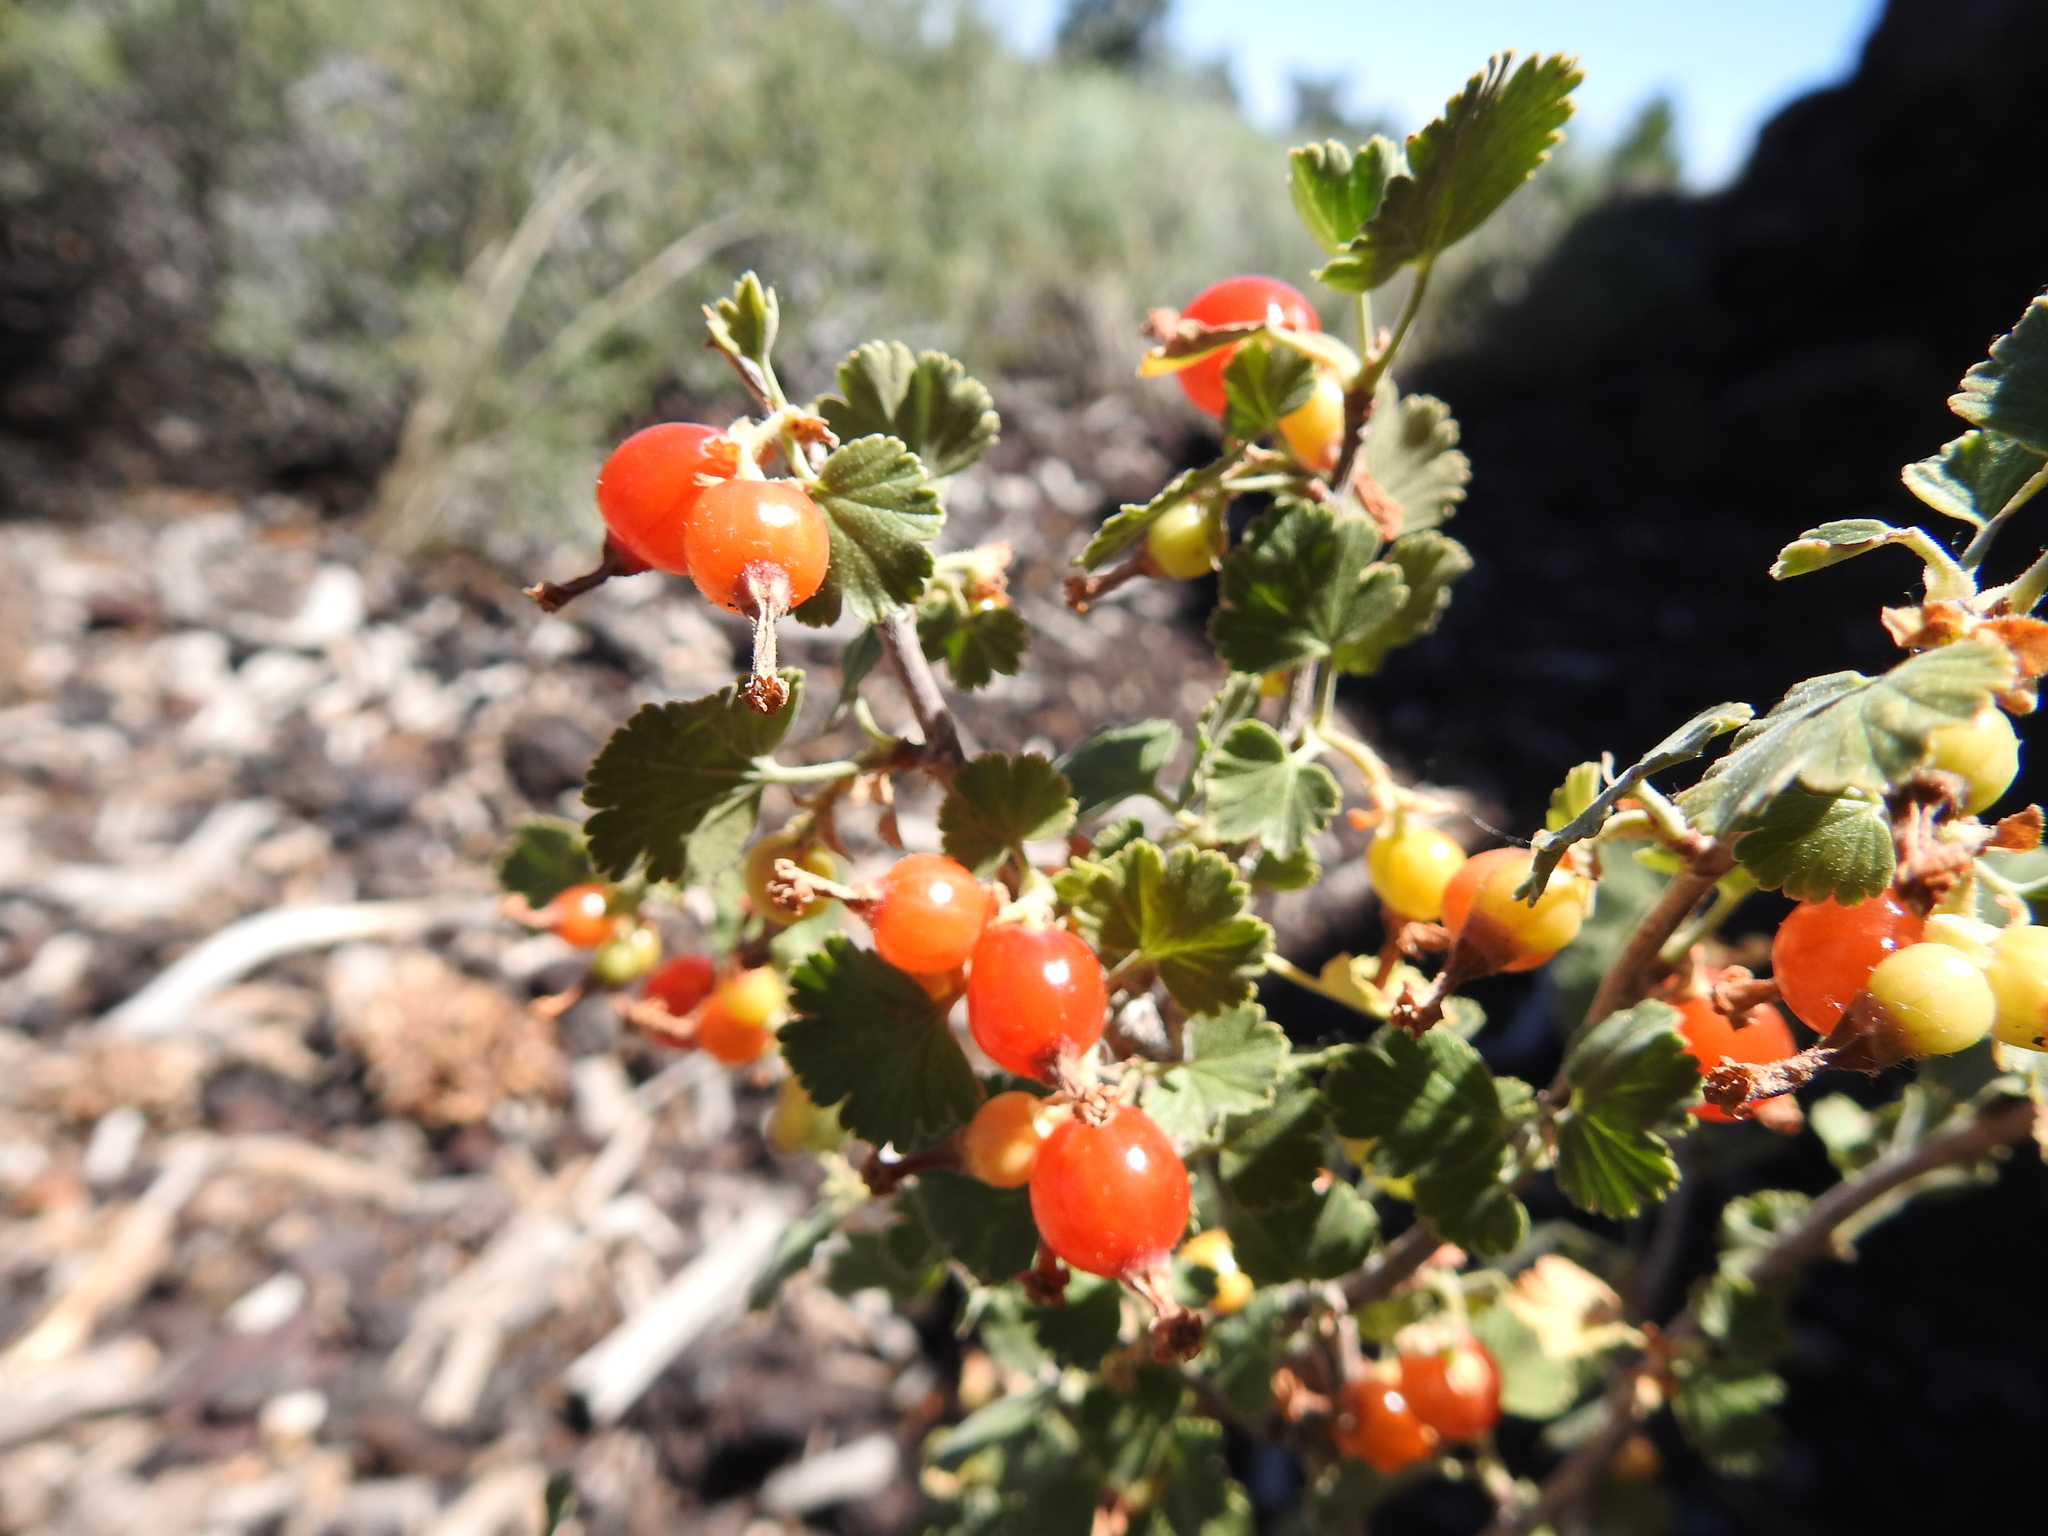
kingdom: Plantae
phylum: Tracheophyta
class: Magnoliopsida
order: Saxifragales
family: Grossulariaceae
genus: Ribes
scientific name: Ribes cereum
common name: Wax currant
